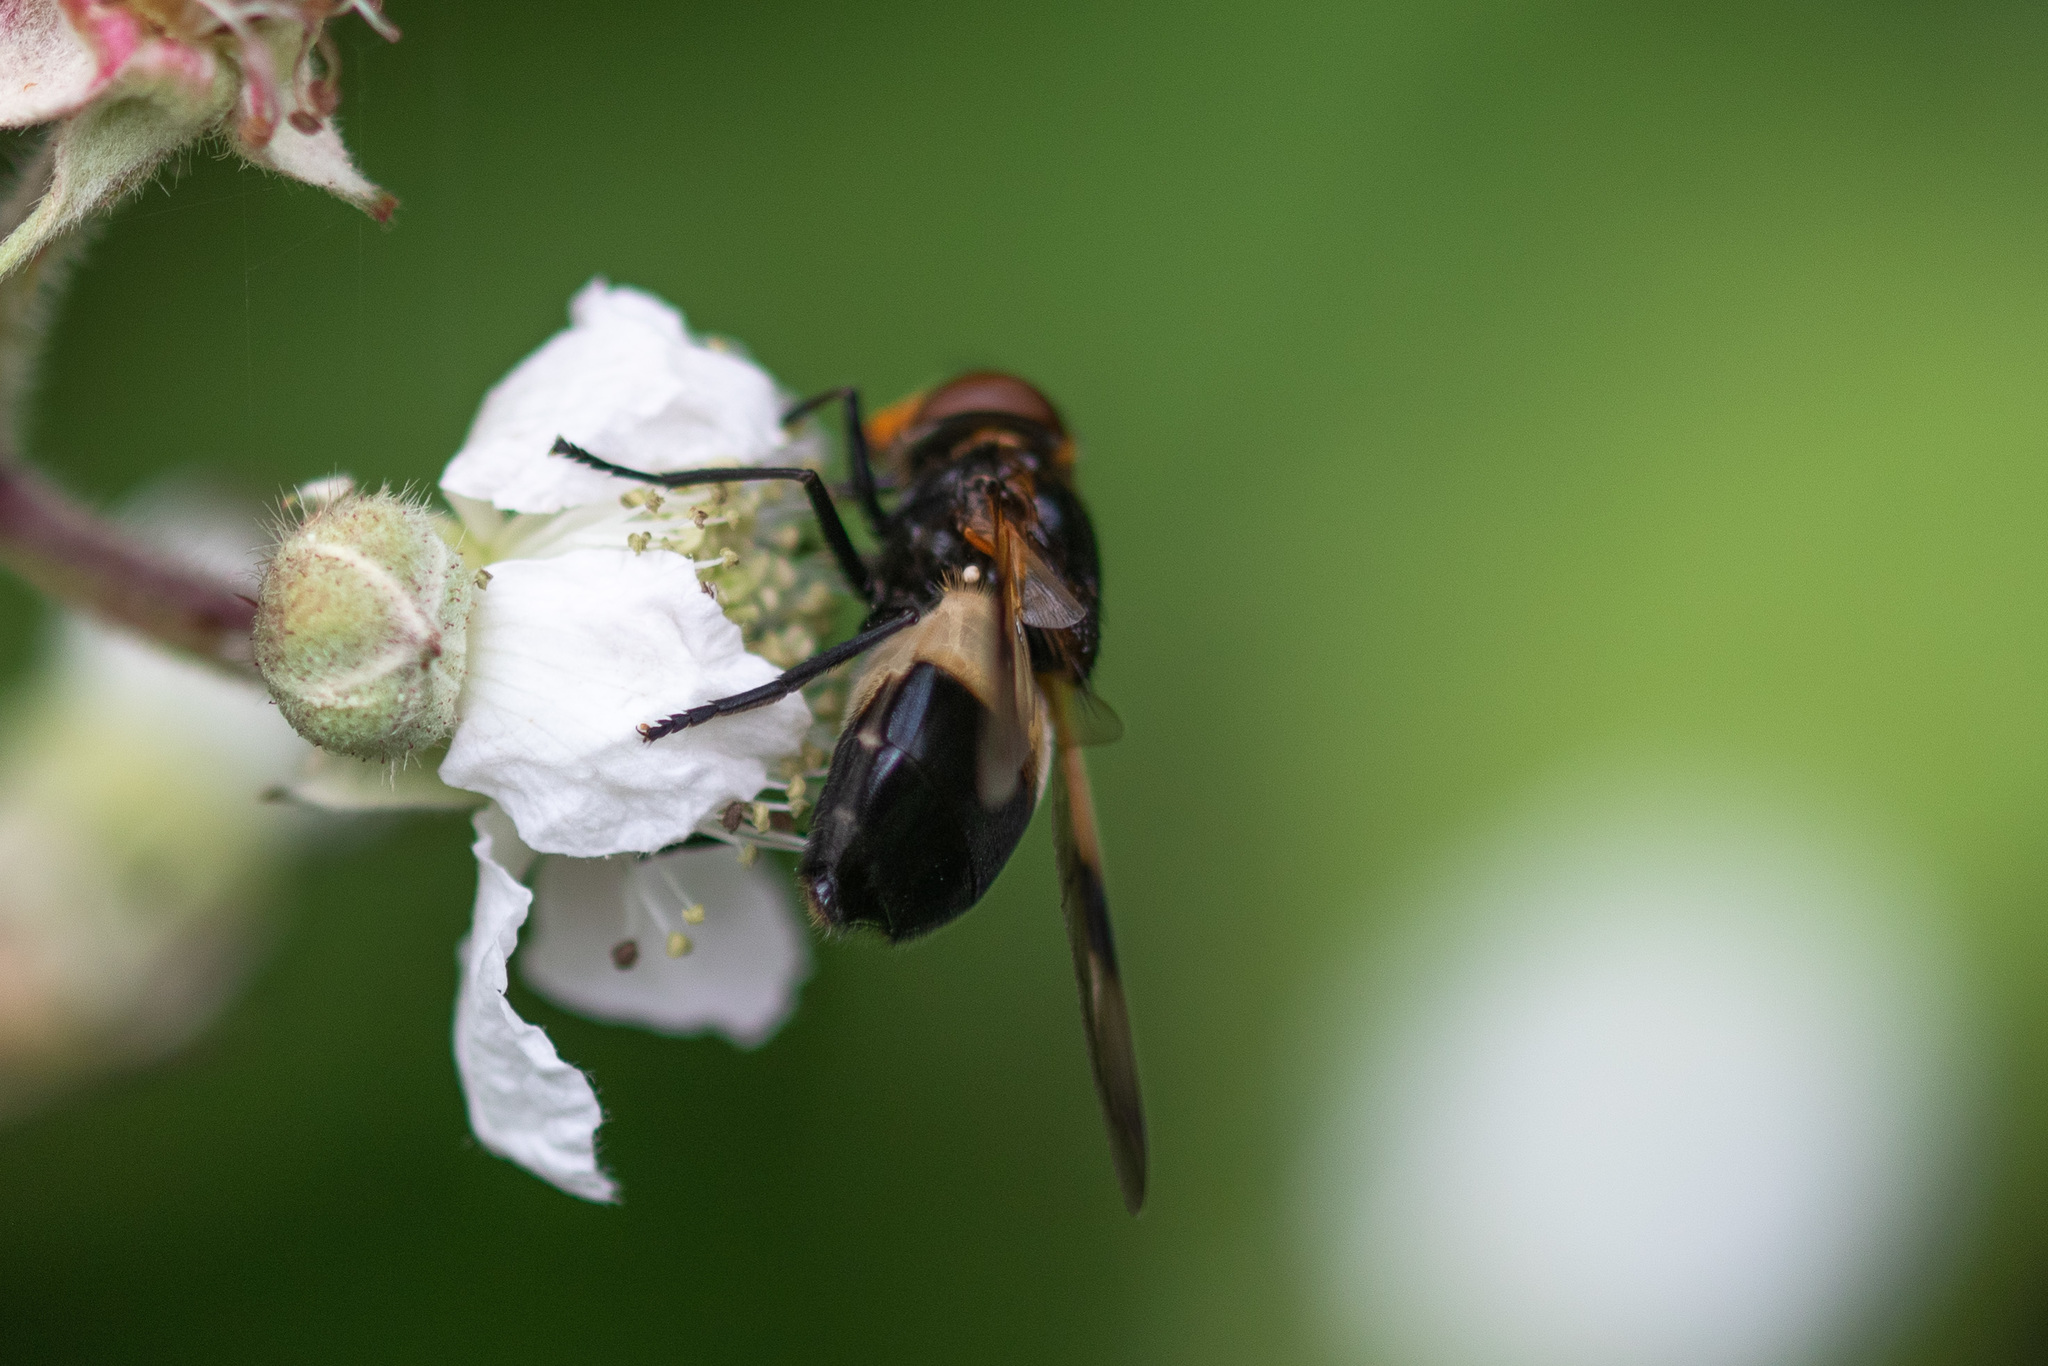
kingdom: Animalia
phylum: Arthropoda
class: Insecta
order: Diptera
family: Syrphidae
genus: Volucella
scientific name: Volucella pellucens
